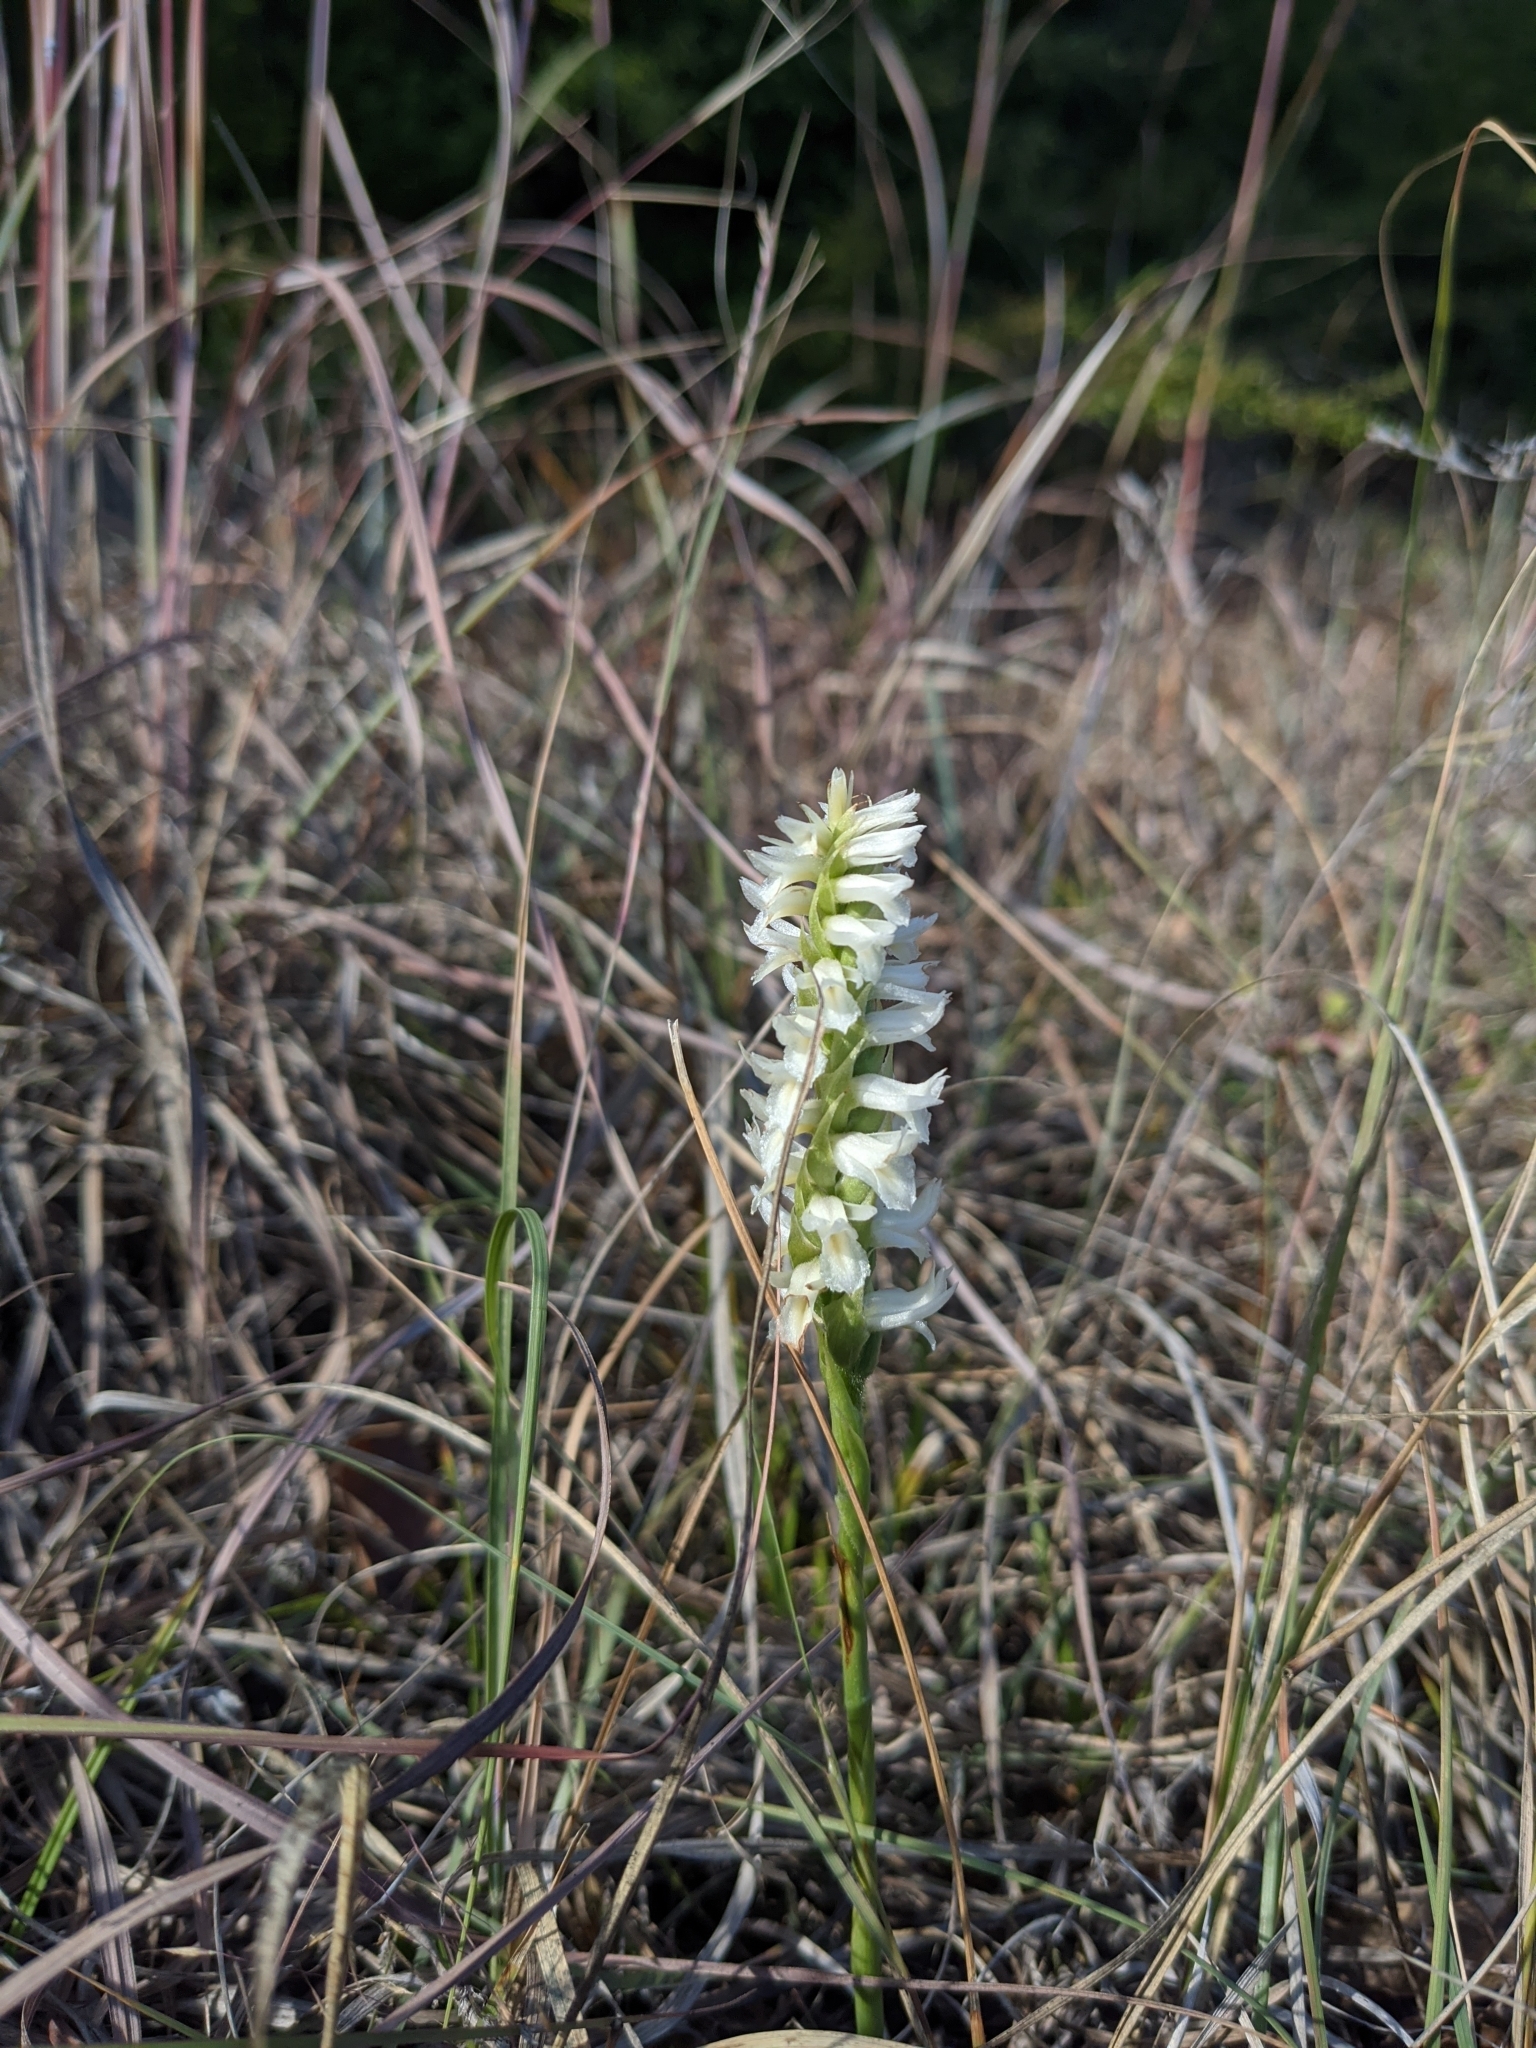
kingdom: Plantae
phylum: Tracheophyta
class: Liliopsida
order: Asparagales
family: Orchidaceae
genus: Spiranthes
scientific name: Spiranthes magnicamporum
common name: Great plains ladies'-tresses
